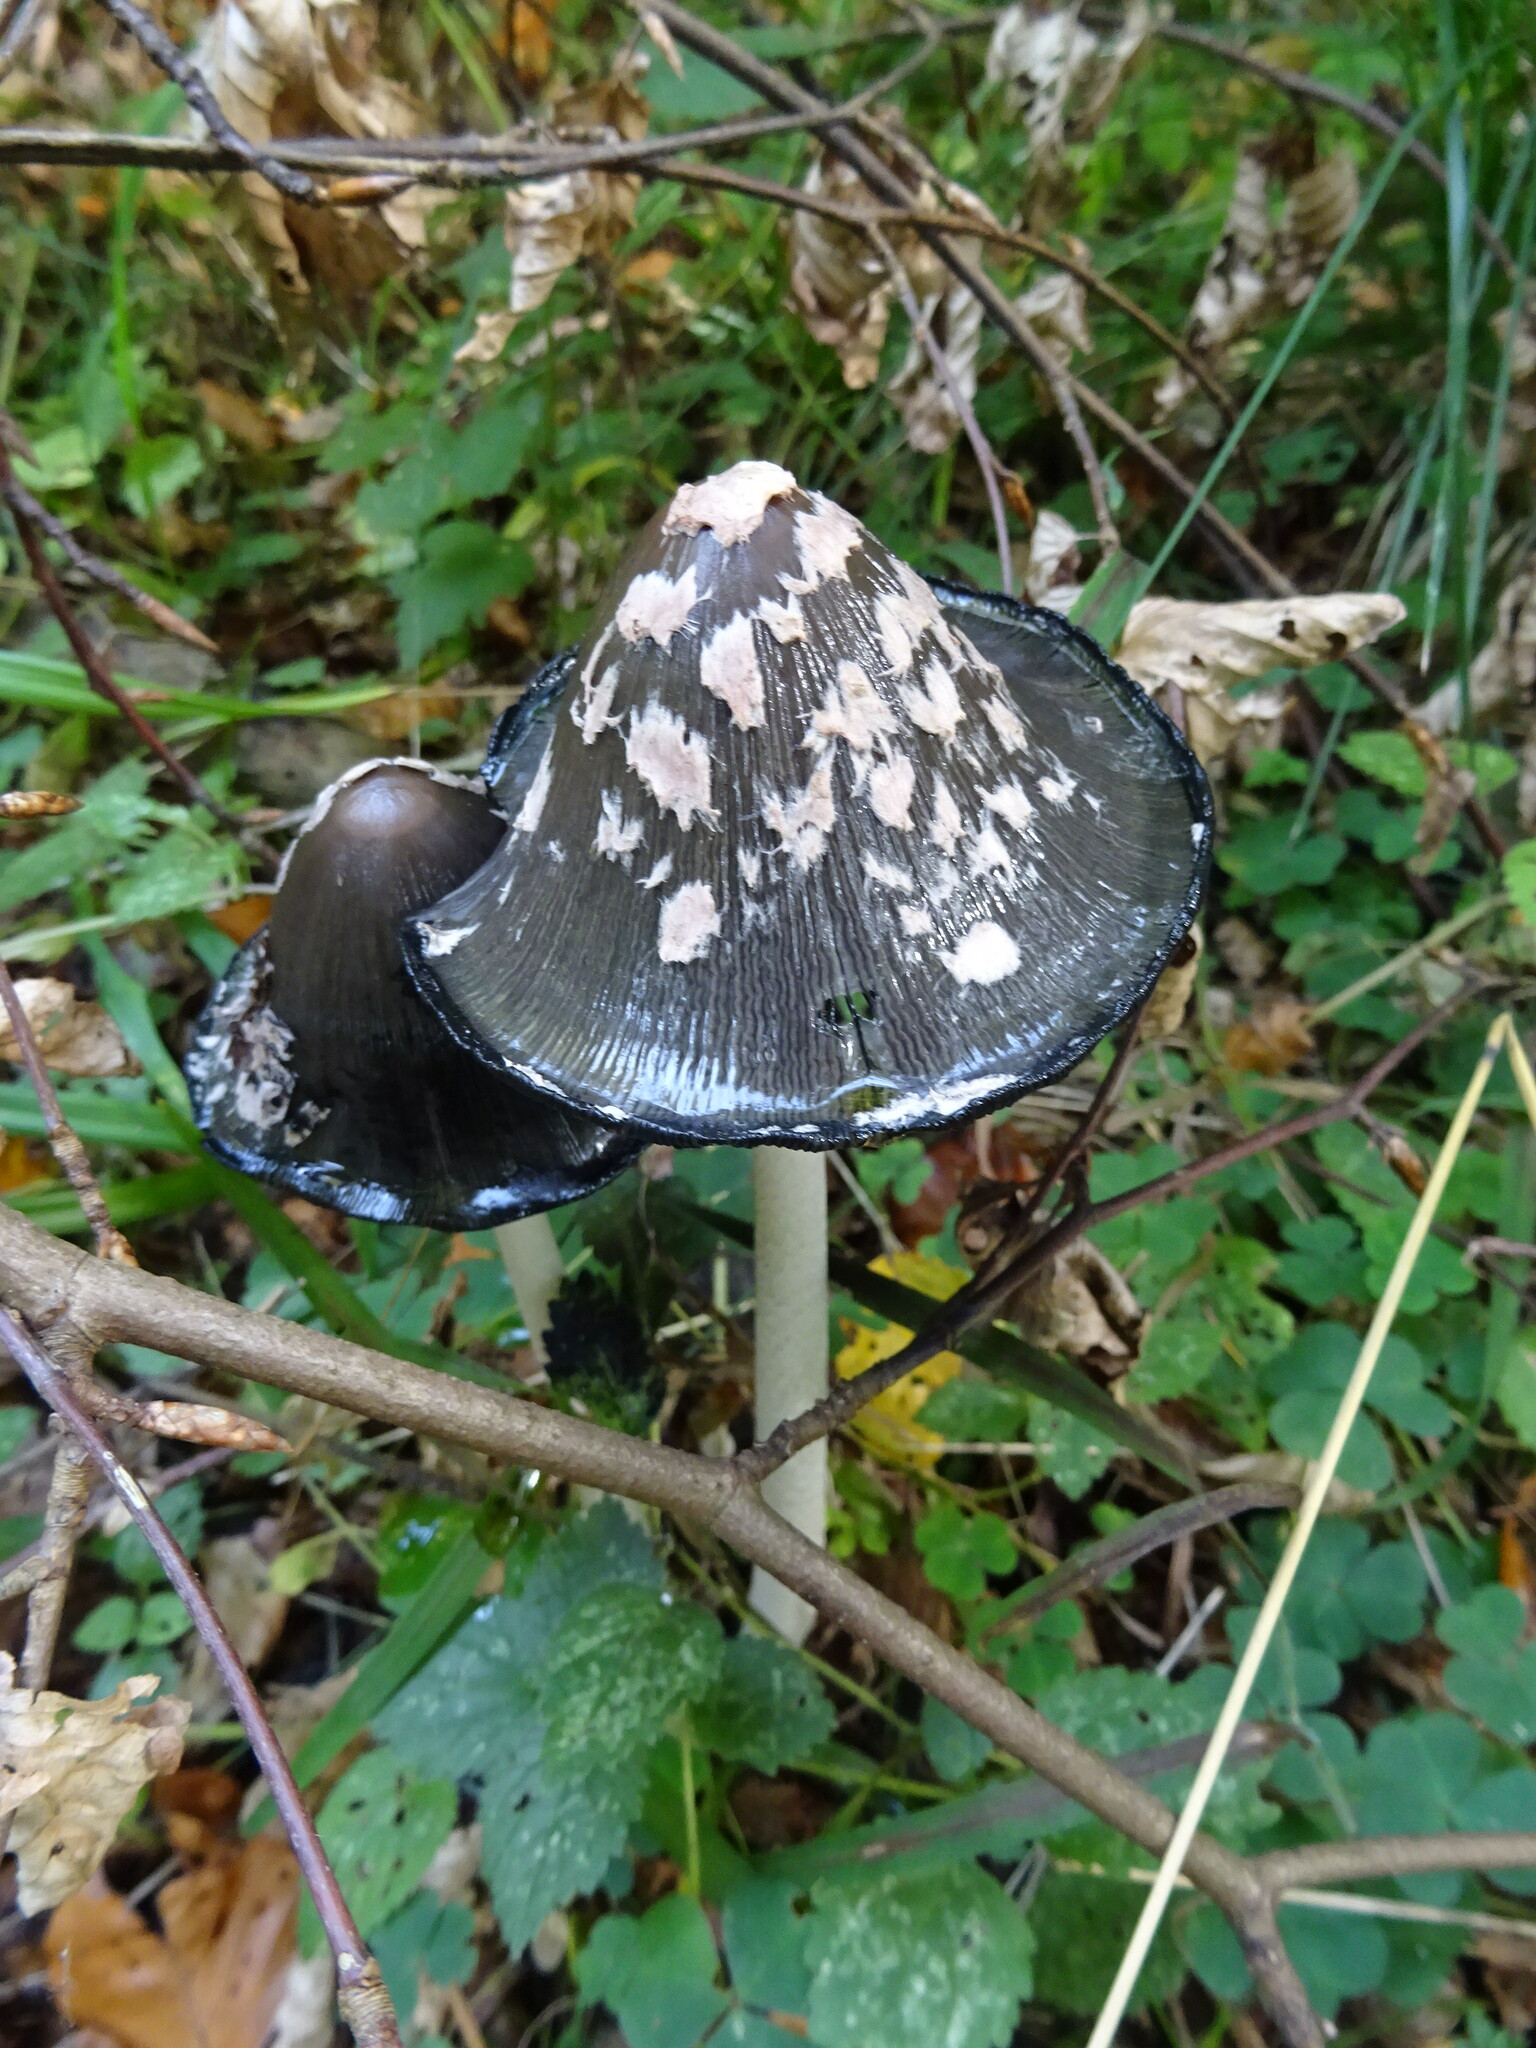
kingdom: Fungi
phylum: Basidiomycota
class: Agaricomycetes
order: Agaricales
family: Psathyrellaceae
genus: Coprinopsis
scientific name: Coprinopsis picacea
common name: Magpie inkcap
